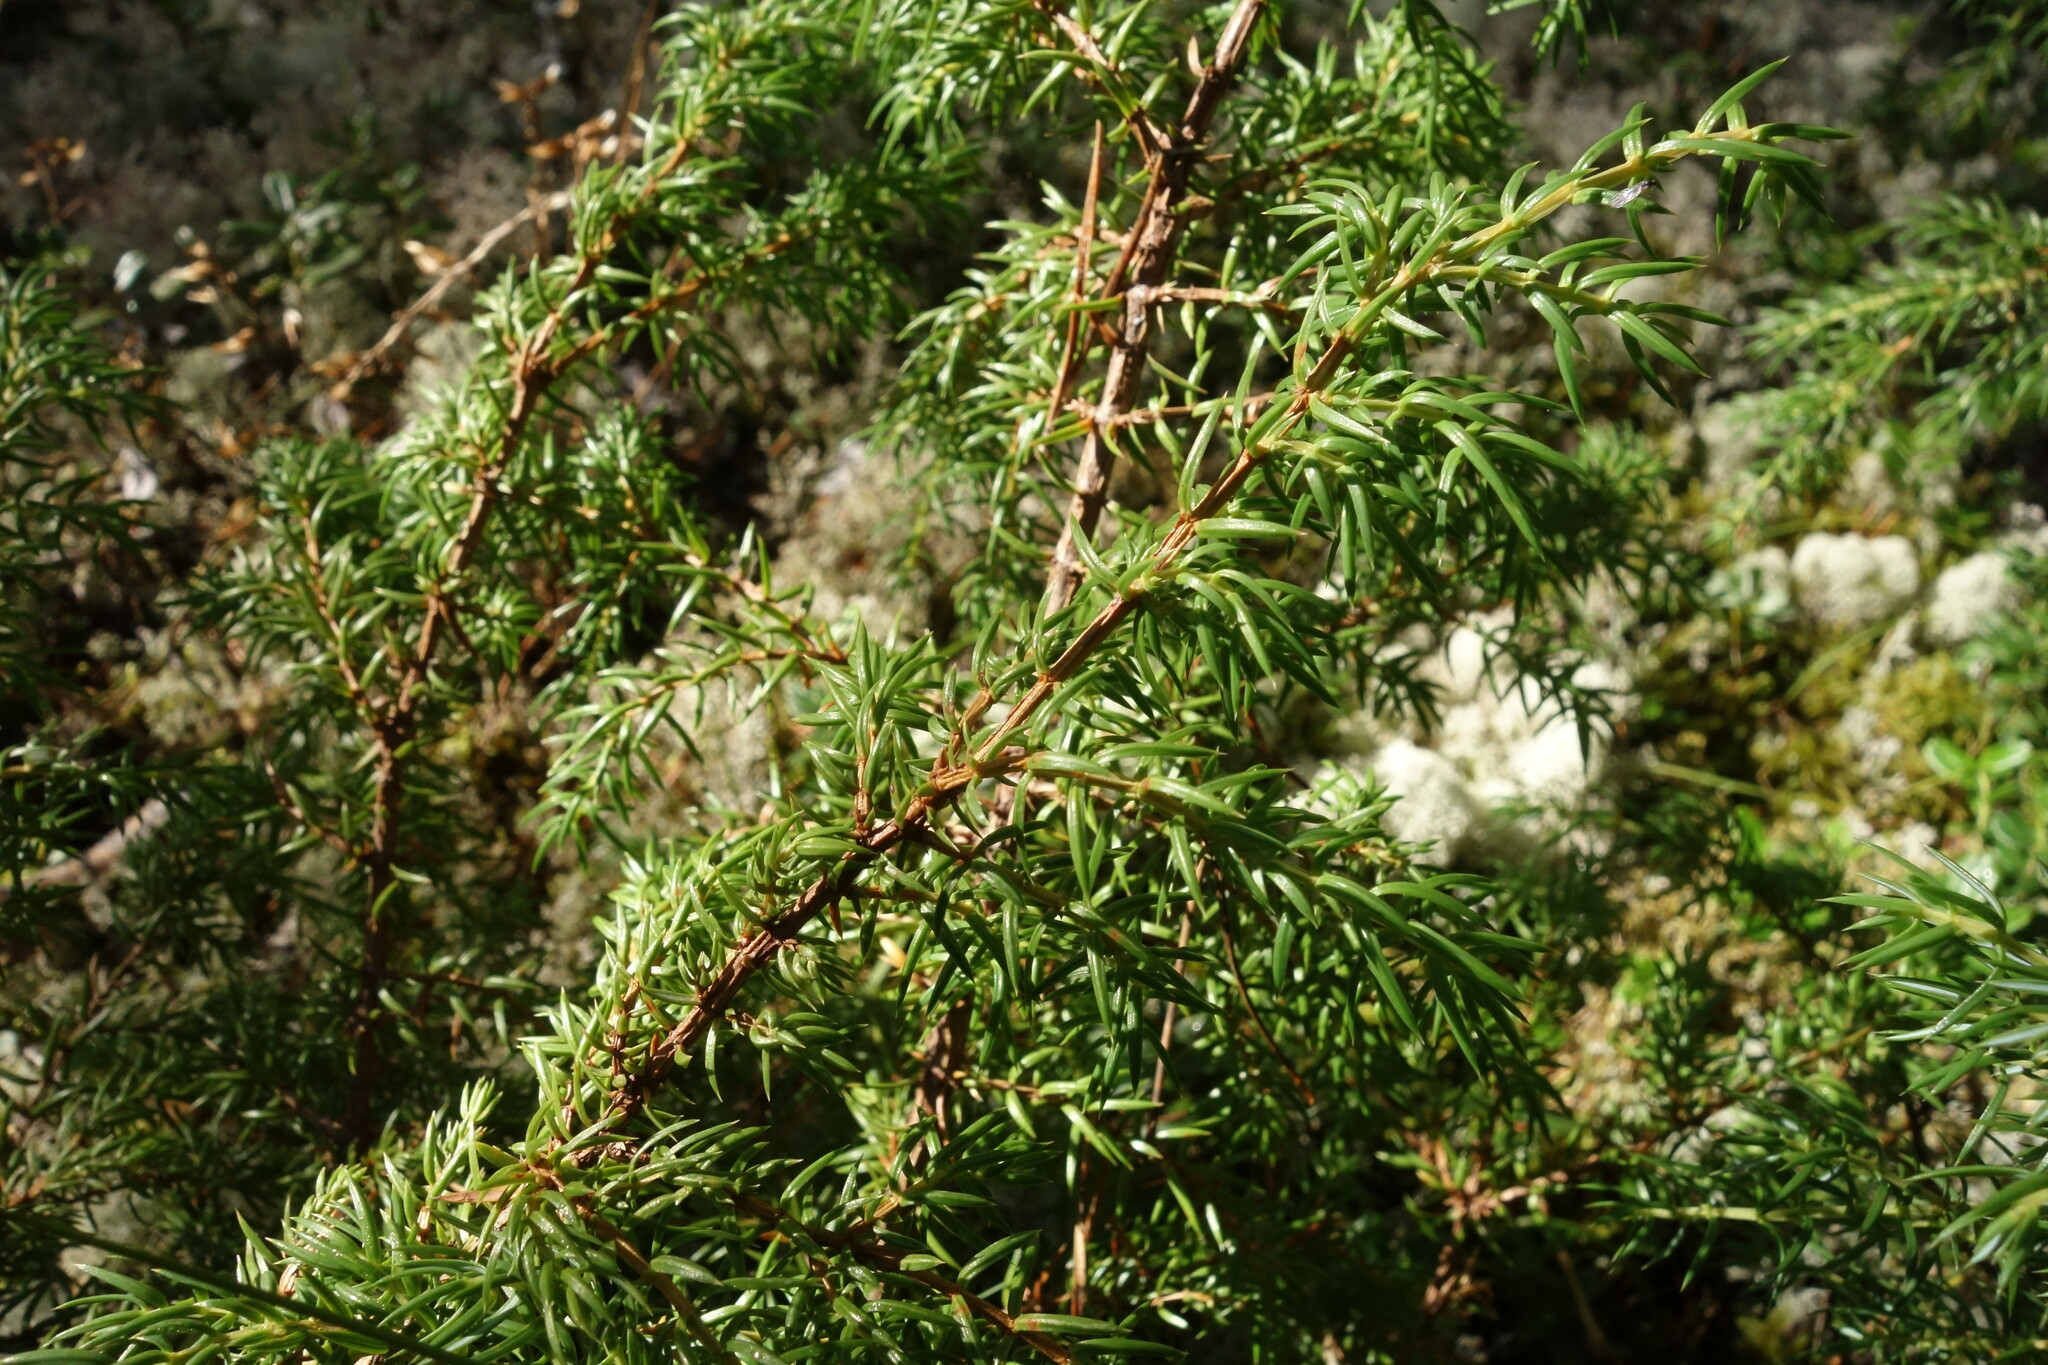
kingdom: Plantae
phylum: Tracheophyta
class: Pinopsida
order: Pinales
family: Cupressaceae
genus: Juniperus
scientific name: Juniperus communis
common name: Common juniper
